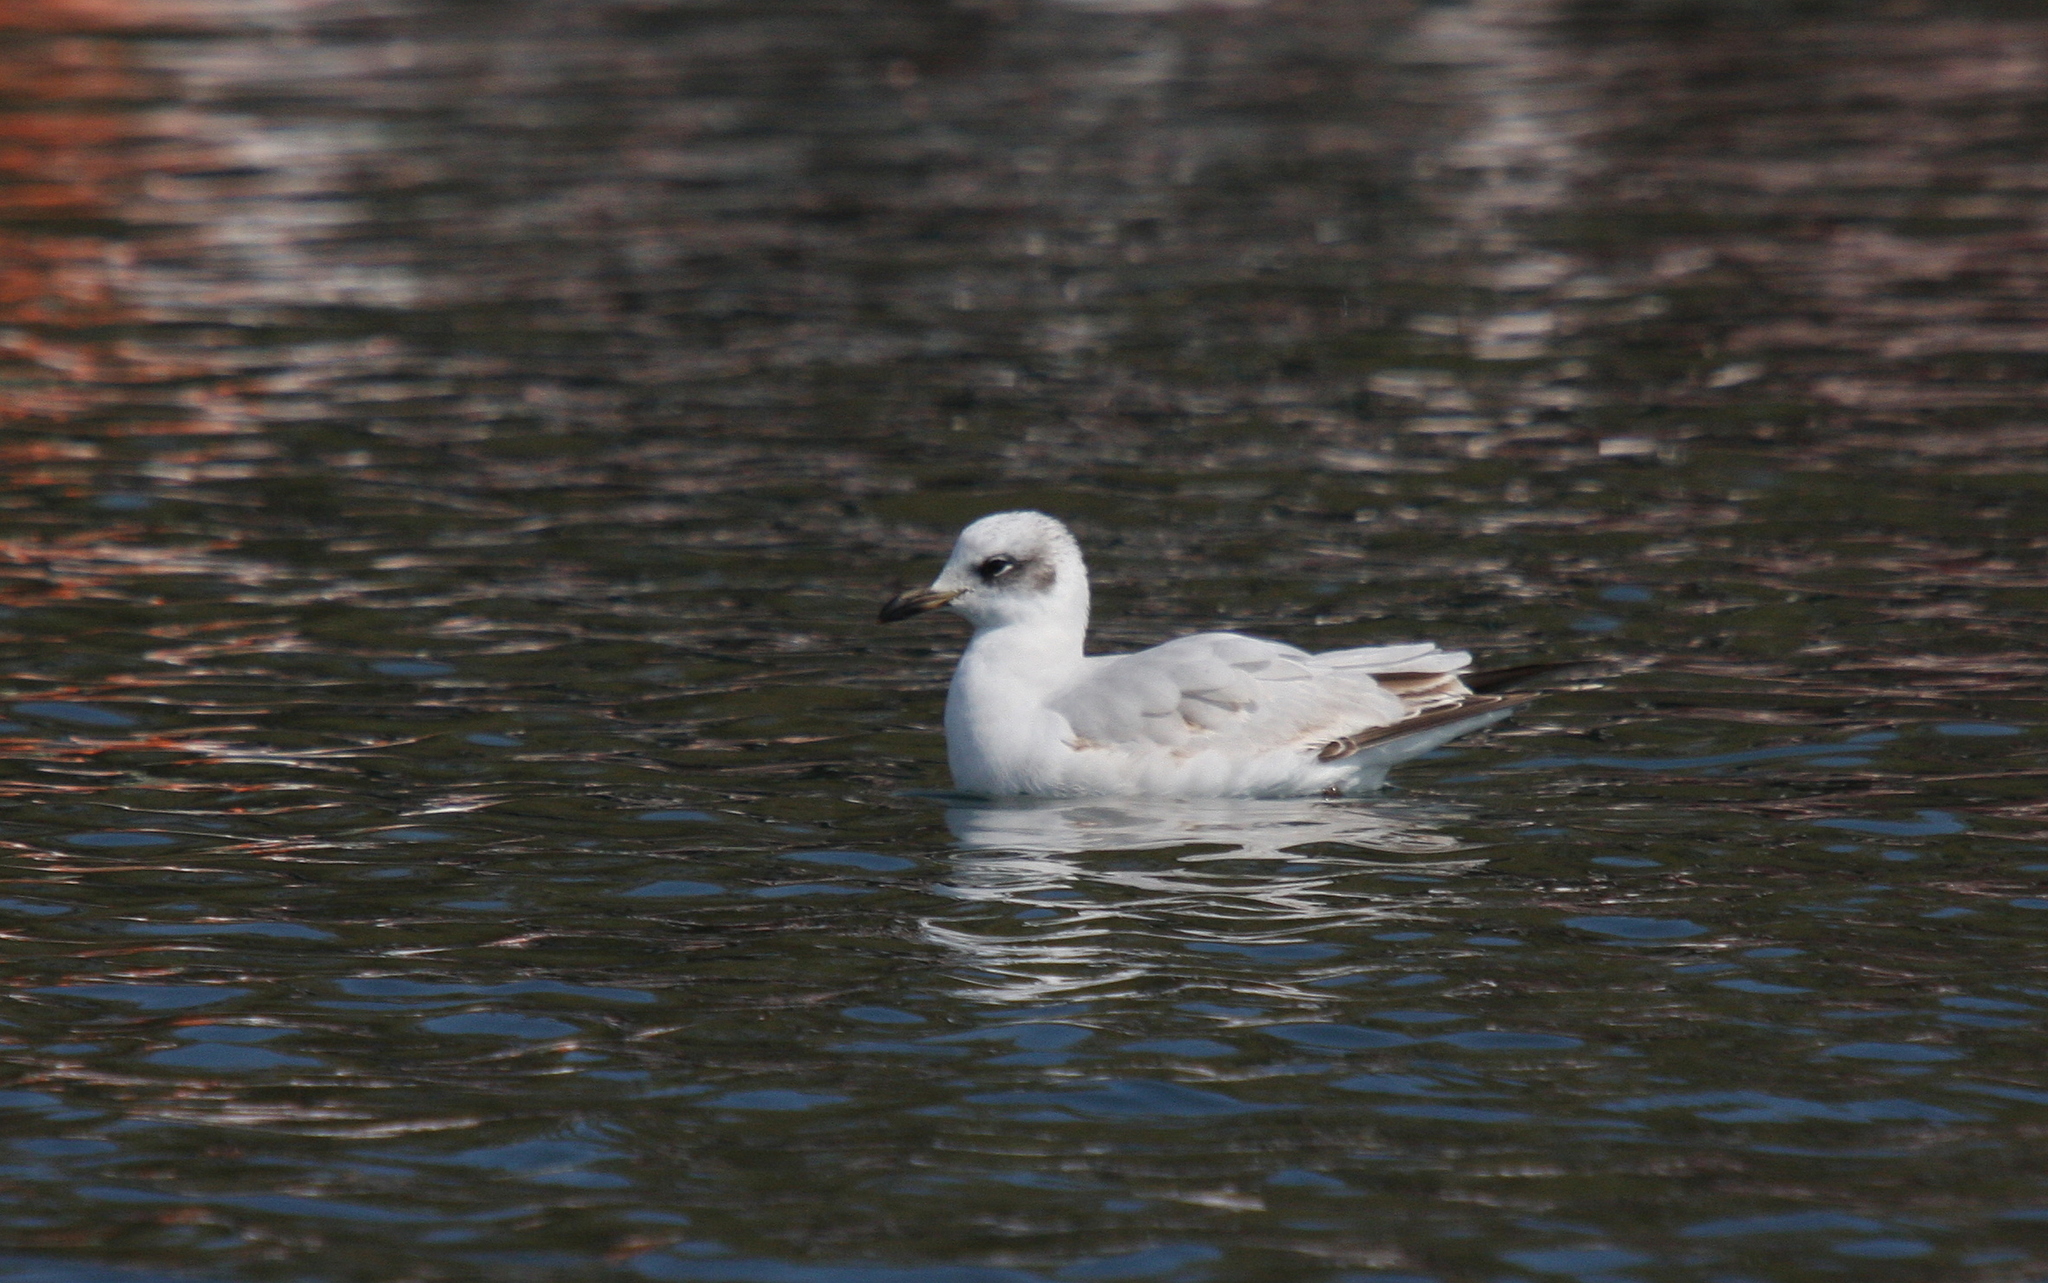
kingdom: Animalia
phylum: Chordata
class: Aves
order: Charadriiformes
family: Laridae
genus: Ichthyaetus
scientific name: Ichthyaetus melanocephalus
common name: Mediterranean gull
